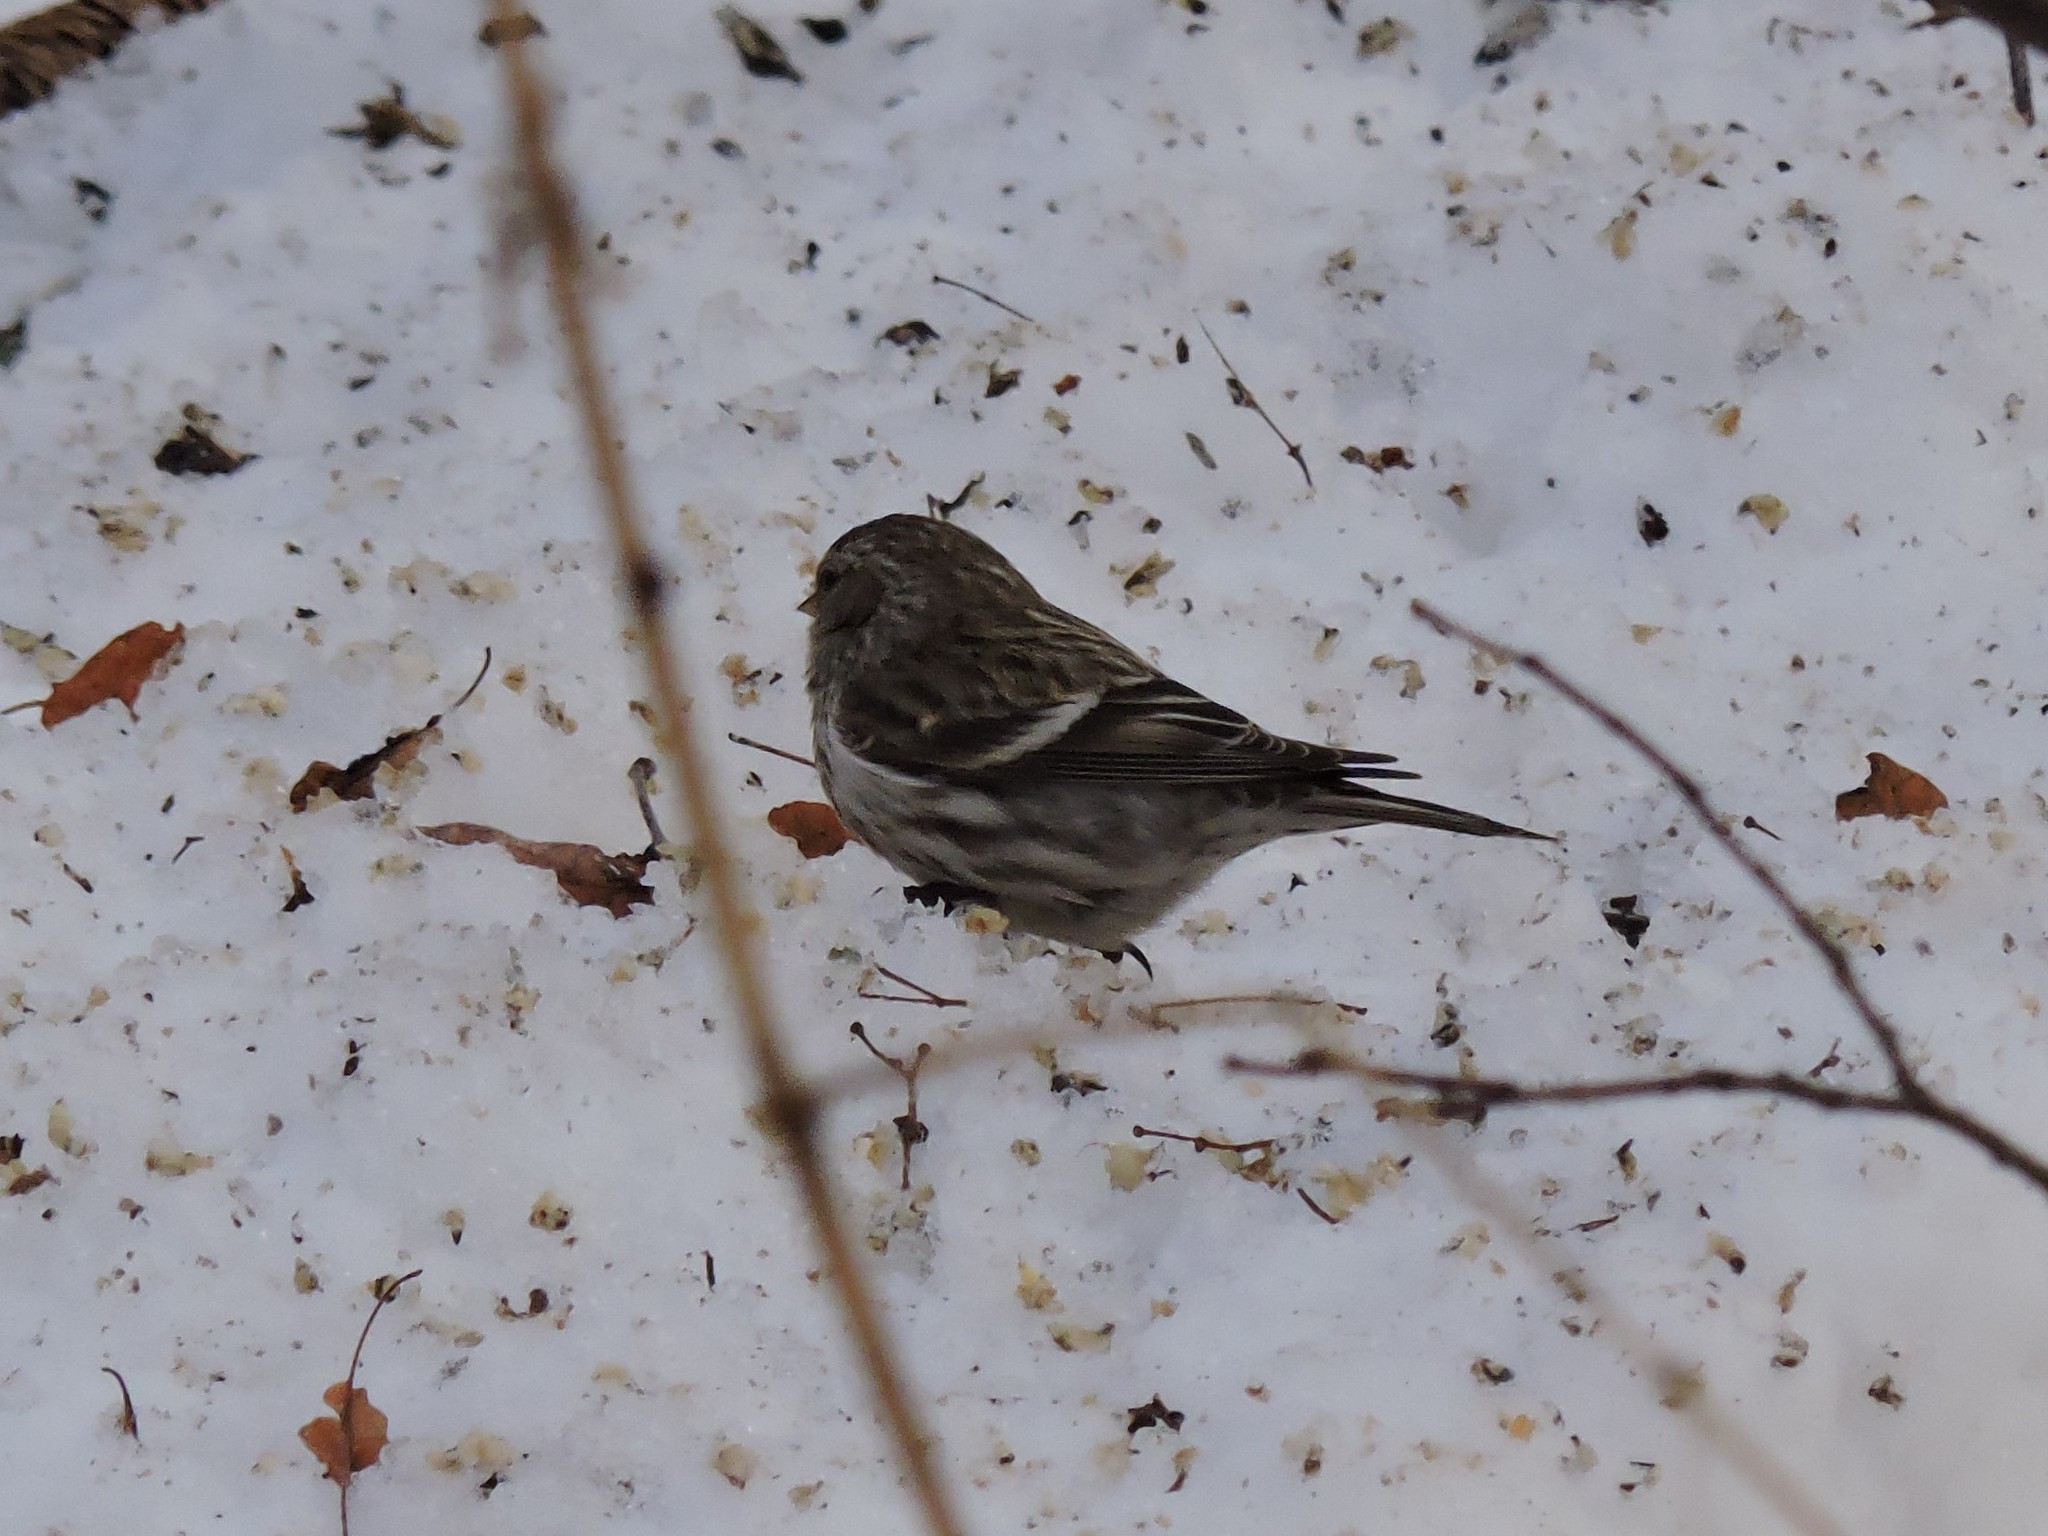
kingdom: Animalia
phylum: Chordata
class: Aves
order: Passeriformes
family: Fringillidae
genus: Acanthis
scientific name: Acanthis flammea
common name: Common redpoll
